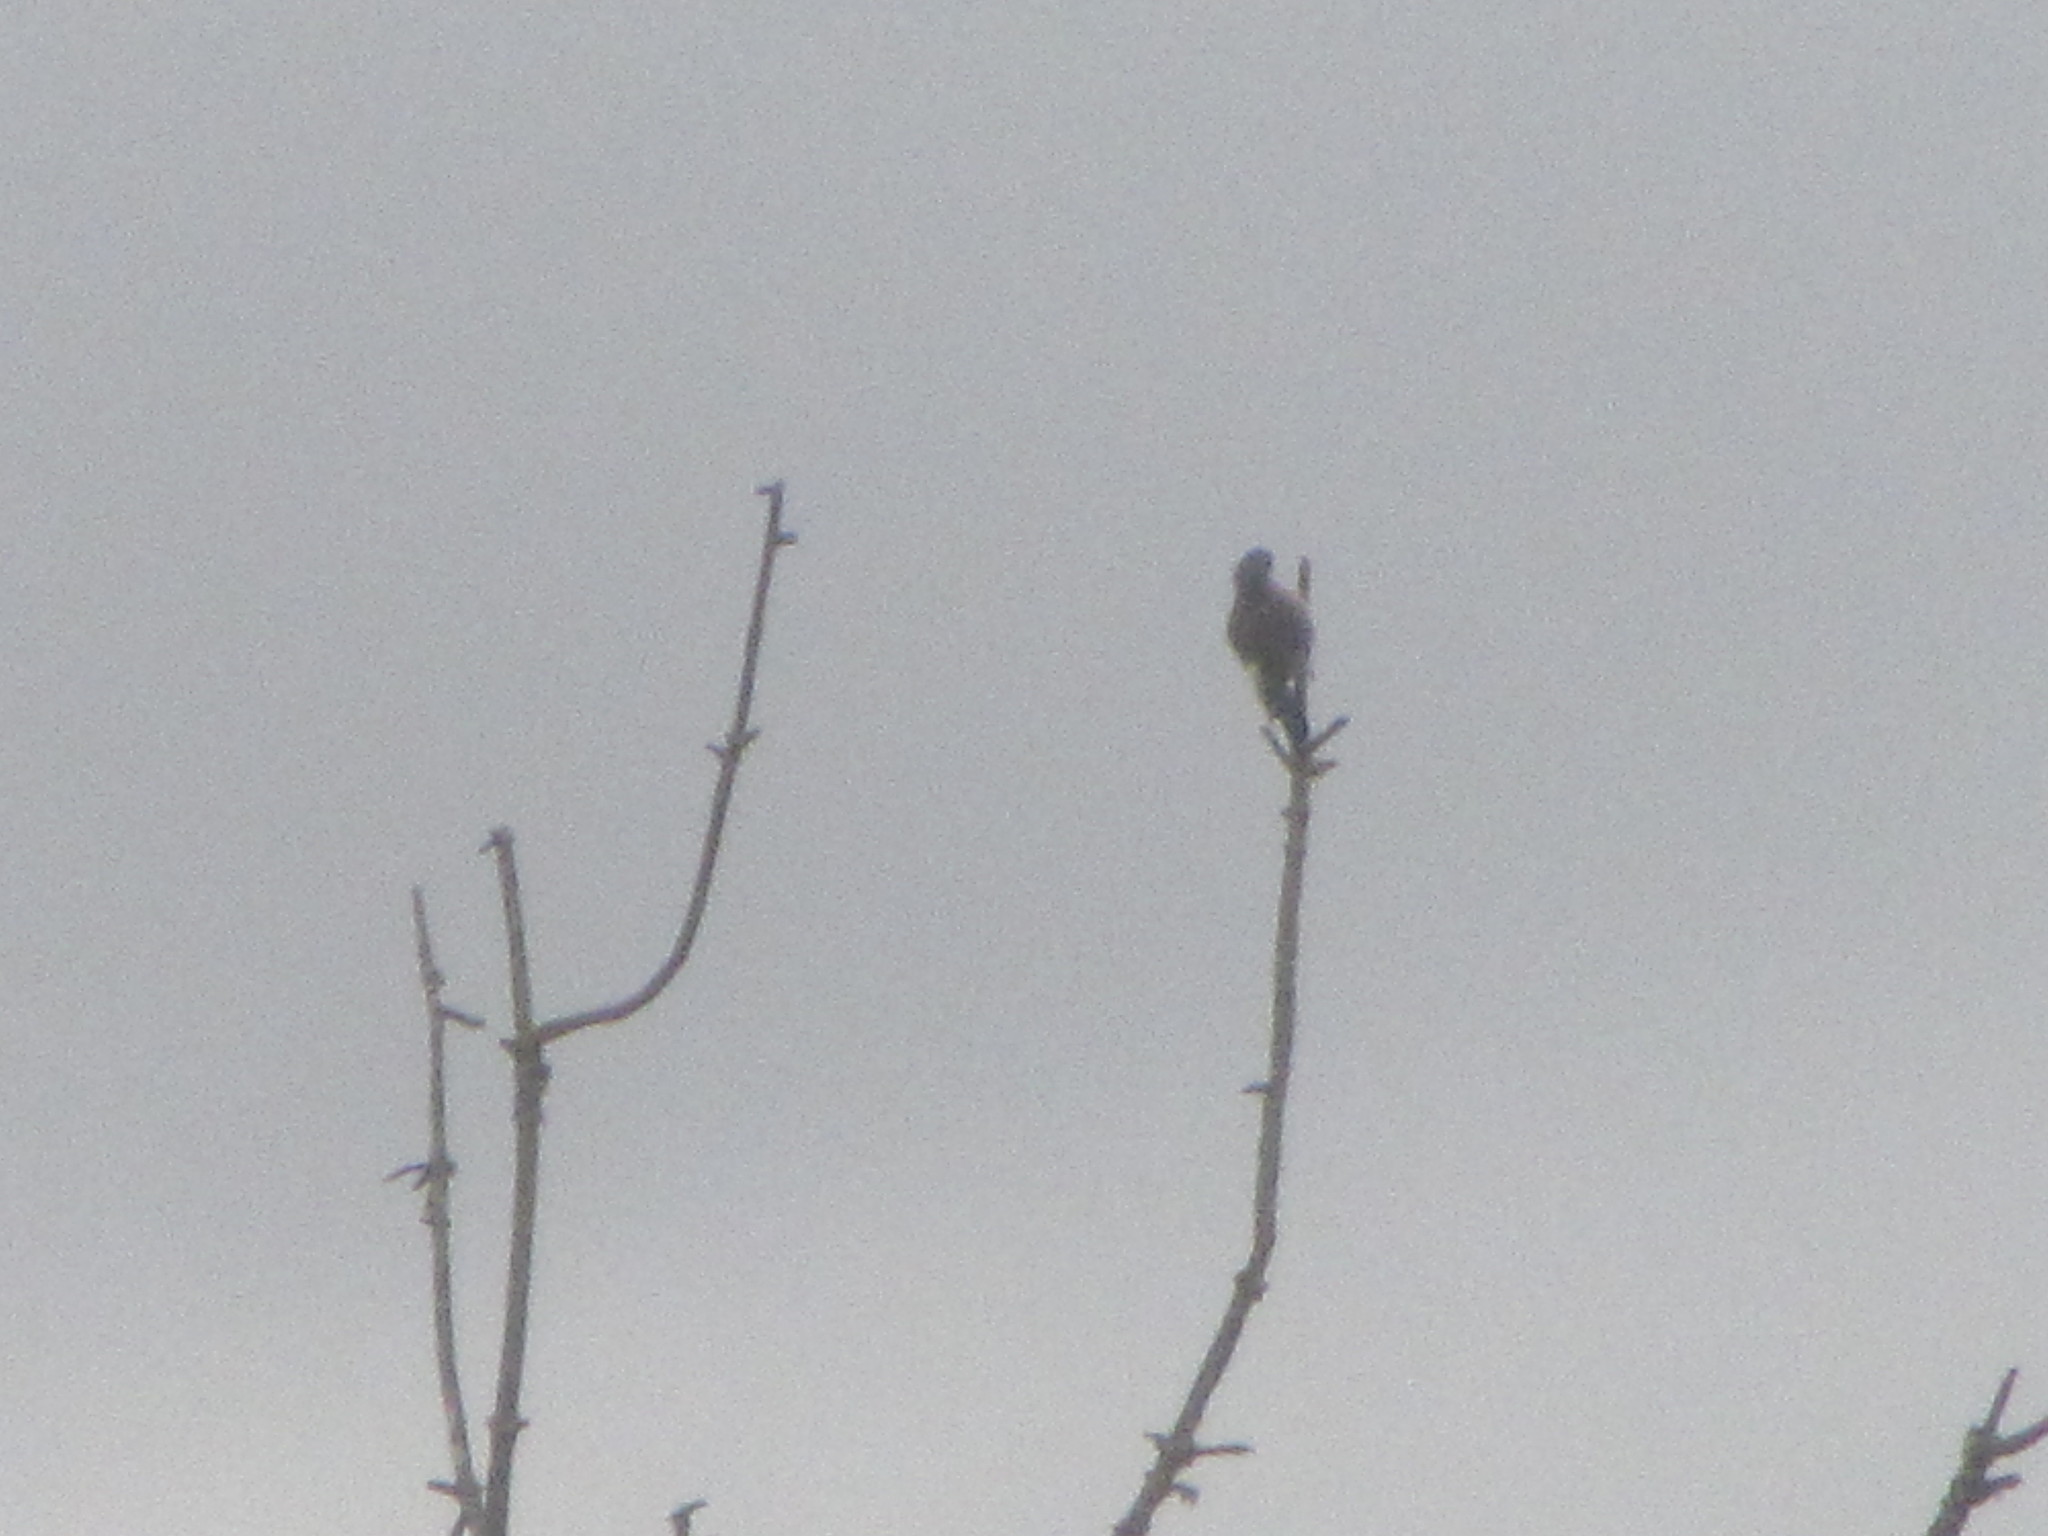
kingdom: Animalia
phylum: Chordata
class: Aves
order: Piciformes
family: Picidae
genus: Colaptes
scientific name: Colaptes auratus
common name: Northern flicker
